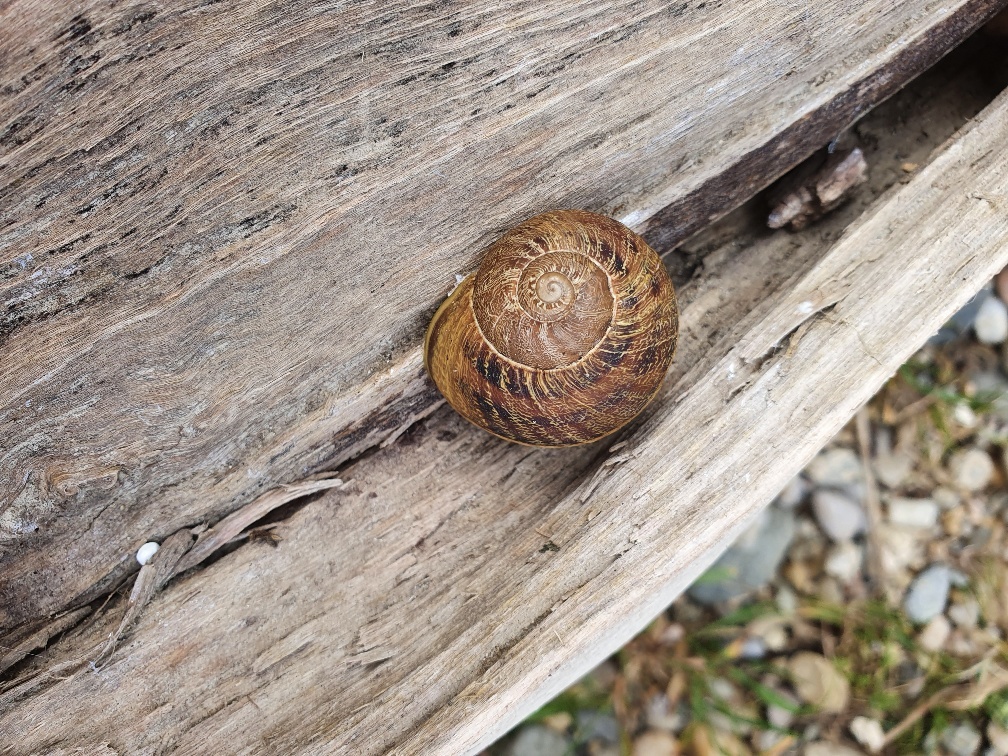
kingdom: Animalia
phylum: Mollusca
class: Gastropoda
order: Stylommatophora
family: Helicidae
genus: Cornu
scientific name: Cornu aspersum
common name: Brown garden snail
